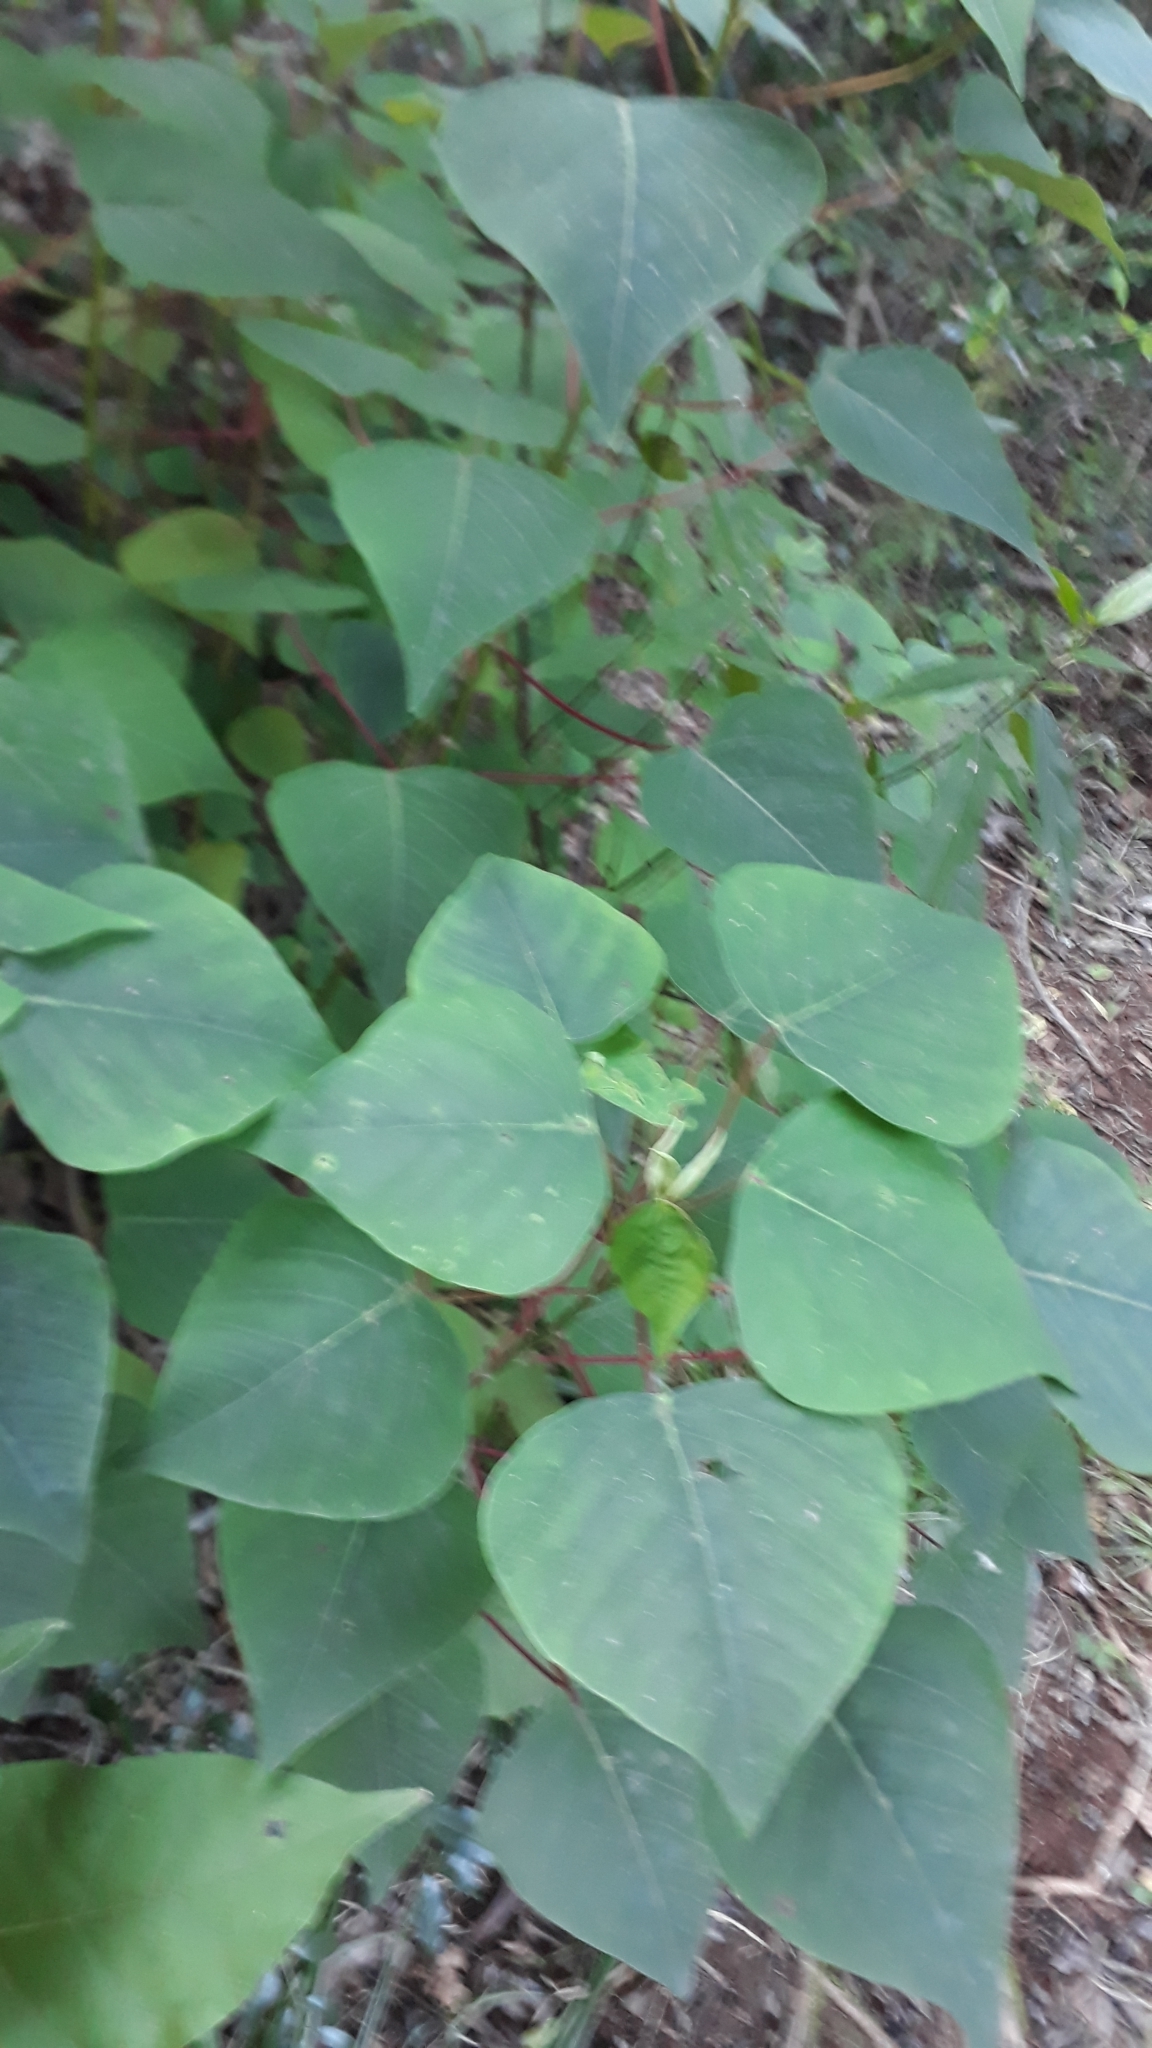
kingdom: Plantae
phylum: Tracheophyta
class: Magnoliopsida
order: Malpighiales
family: Euphorbiaceae
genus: Homalanthus
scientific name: Homalanthus populifolius
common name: Queensland poplar
